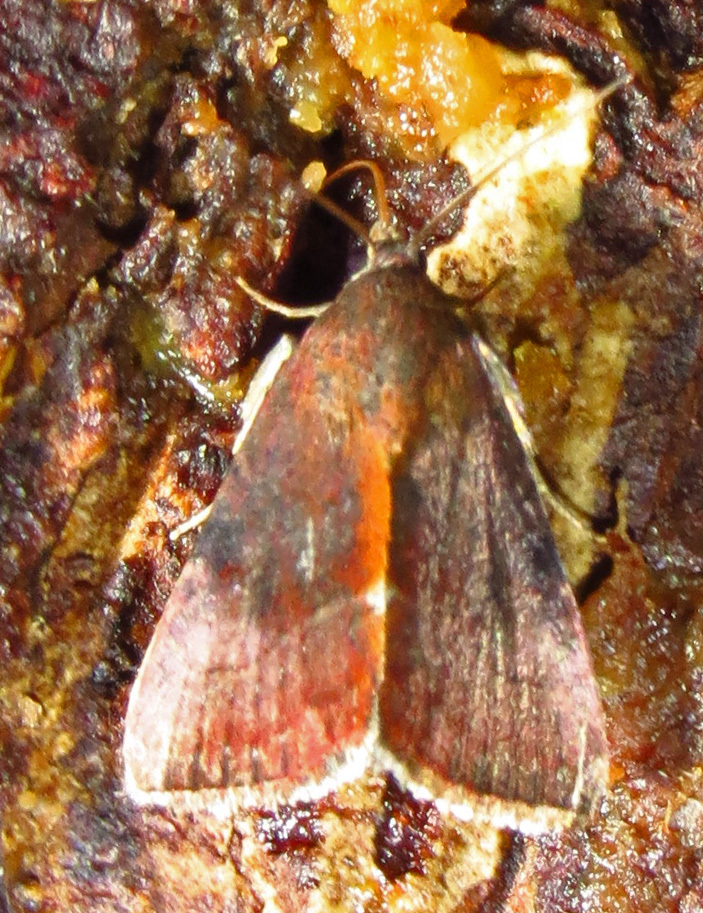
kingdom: Animalia
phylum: Arthropoda
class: Insecta
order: Lepidoptera
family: Noctuidae
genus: Galgula
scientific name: Galgula partita
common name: Wedgeling
